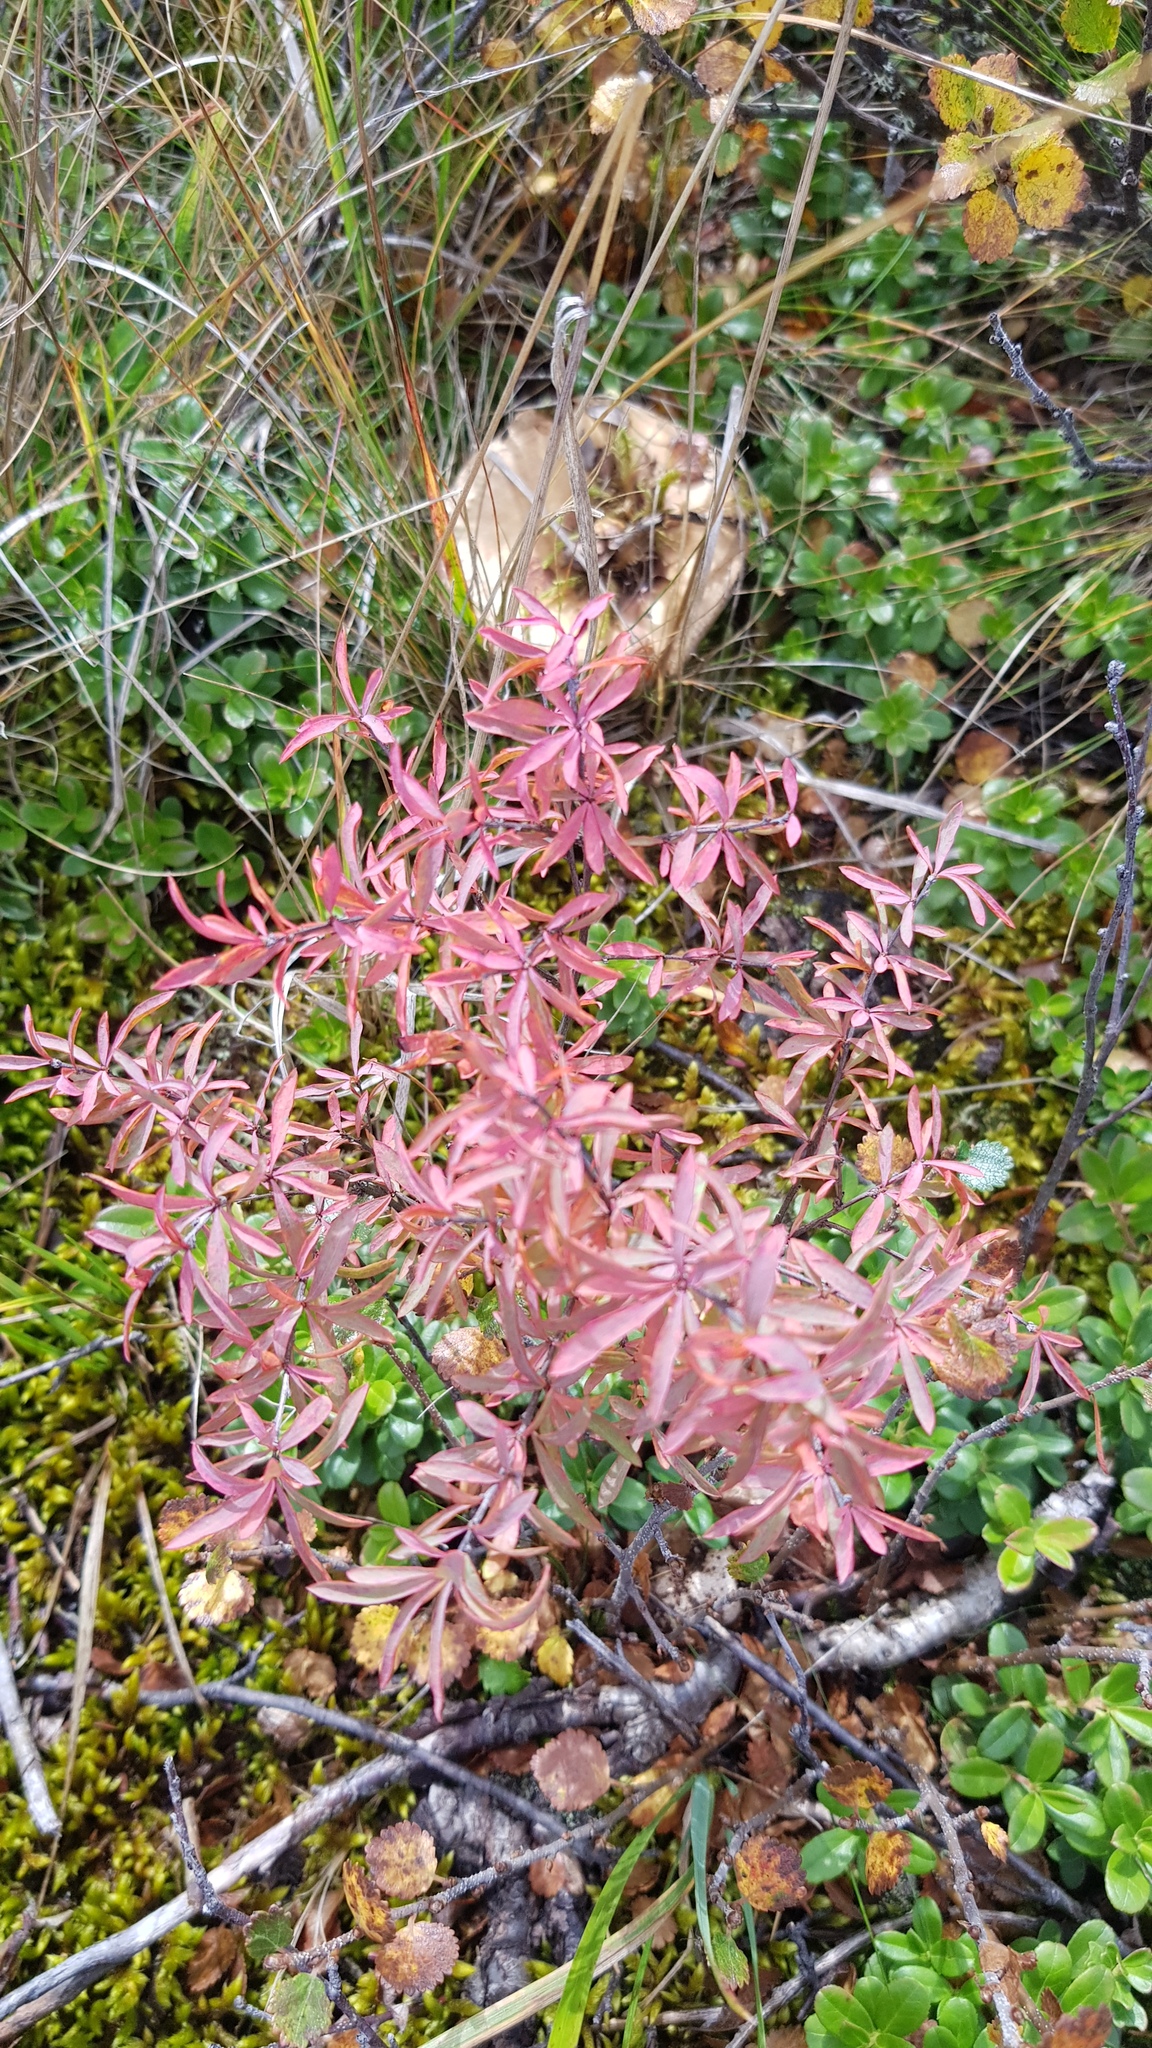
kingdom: Plantae
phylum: Tracheophyta
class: Magnoliopsida
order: Myrtales
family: Onagraceae
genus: Chamaenerion
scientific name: Chamaenerion angustifolium
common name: Fireweed
